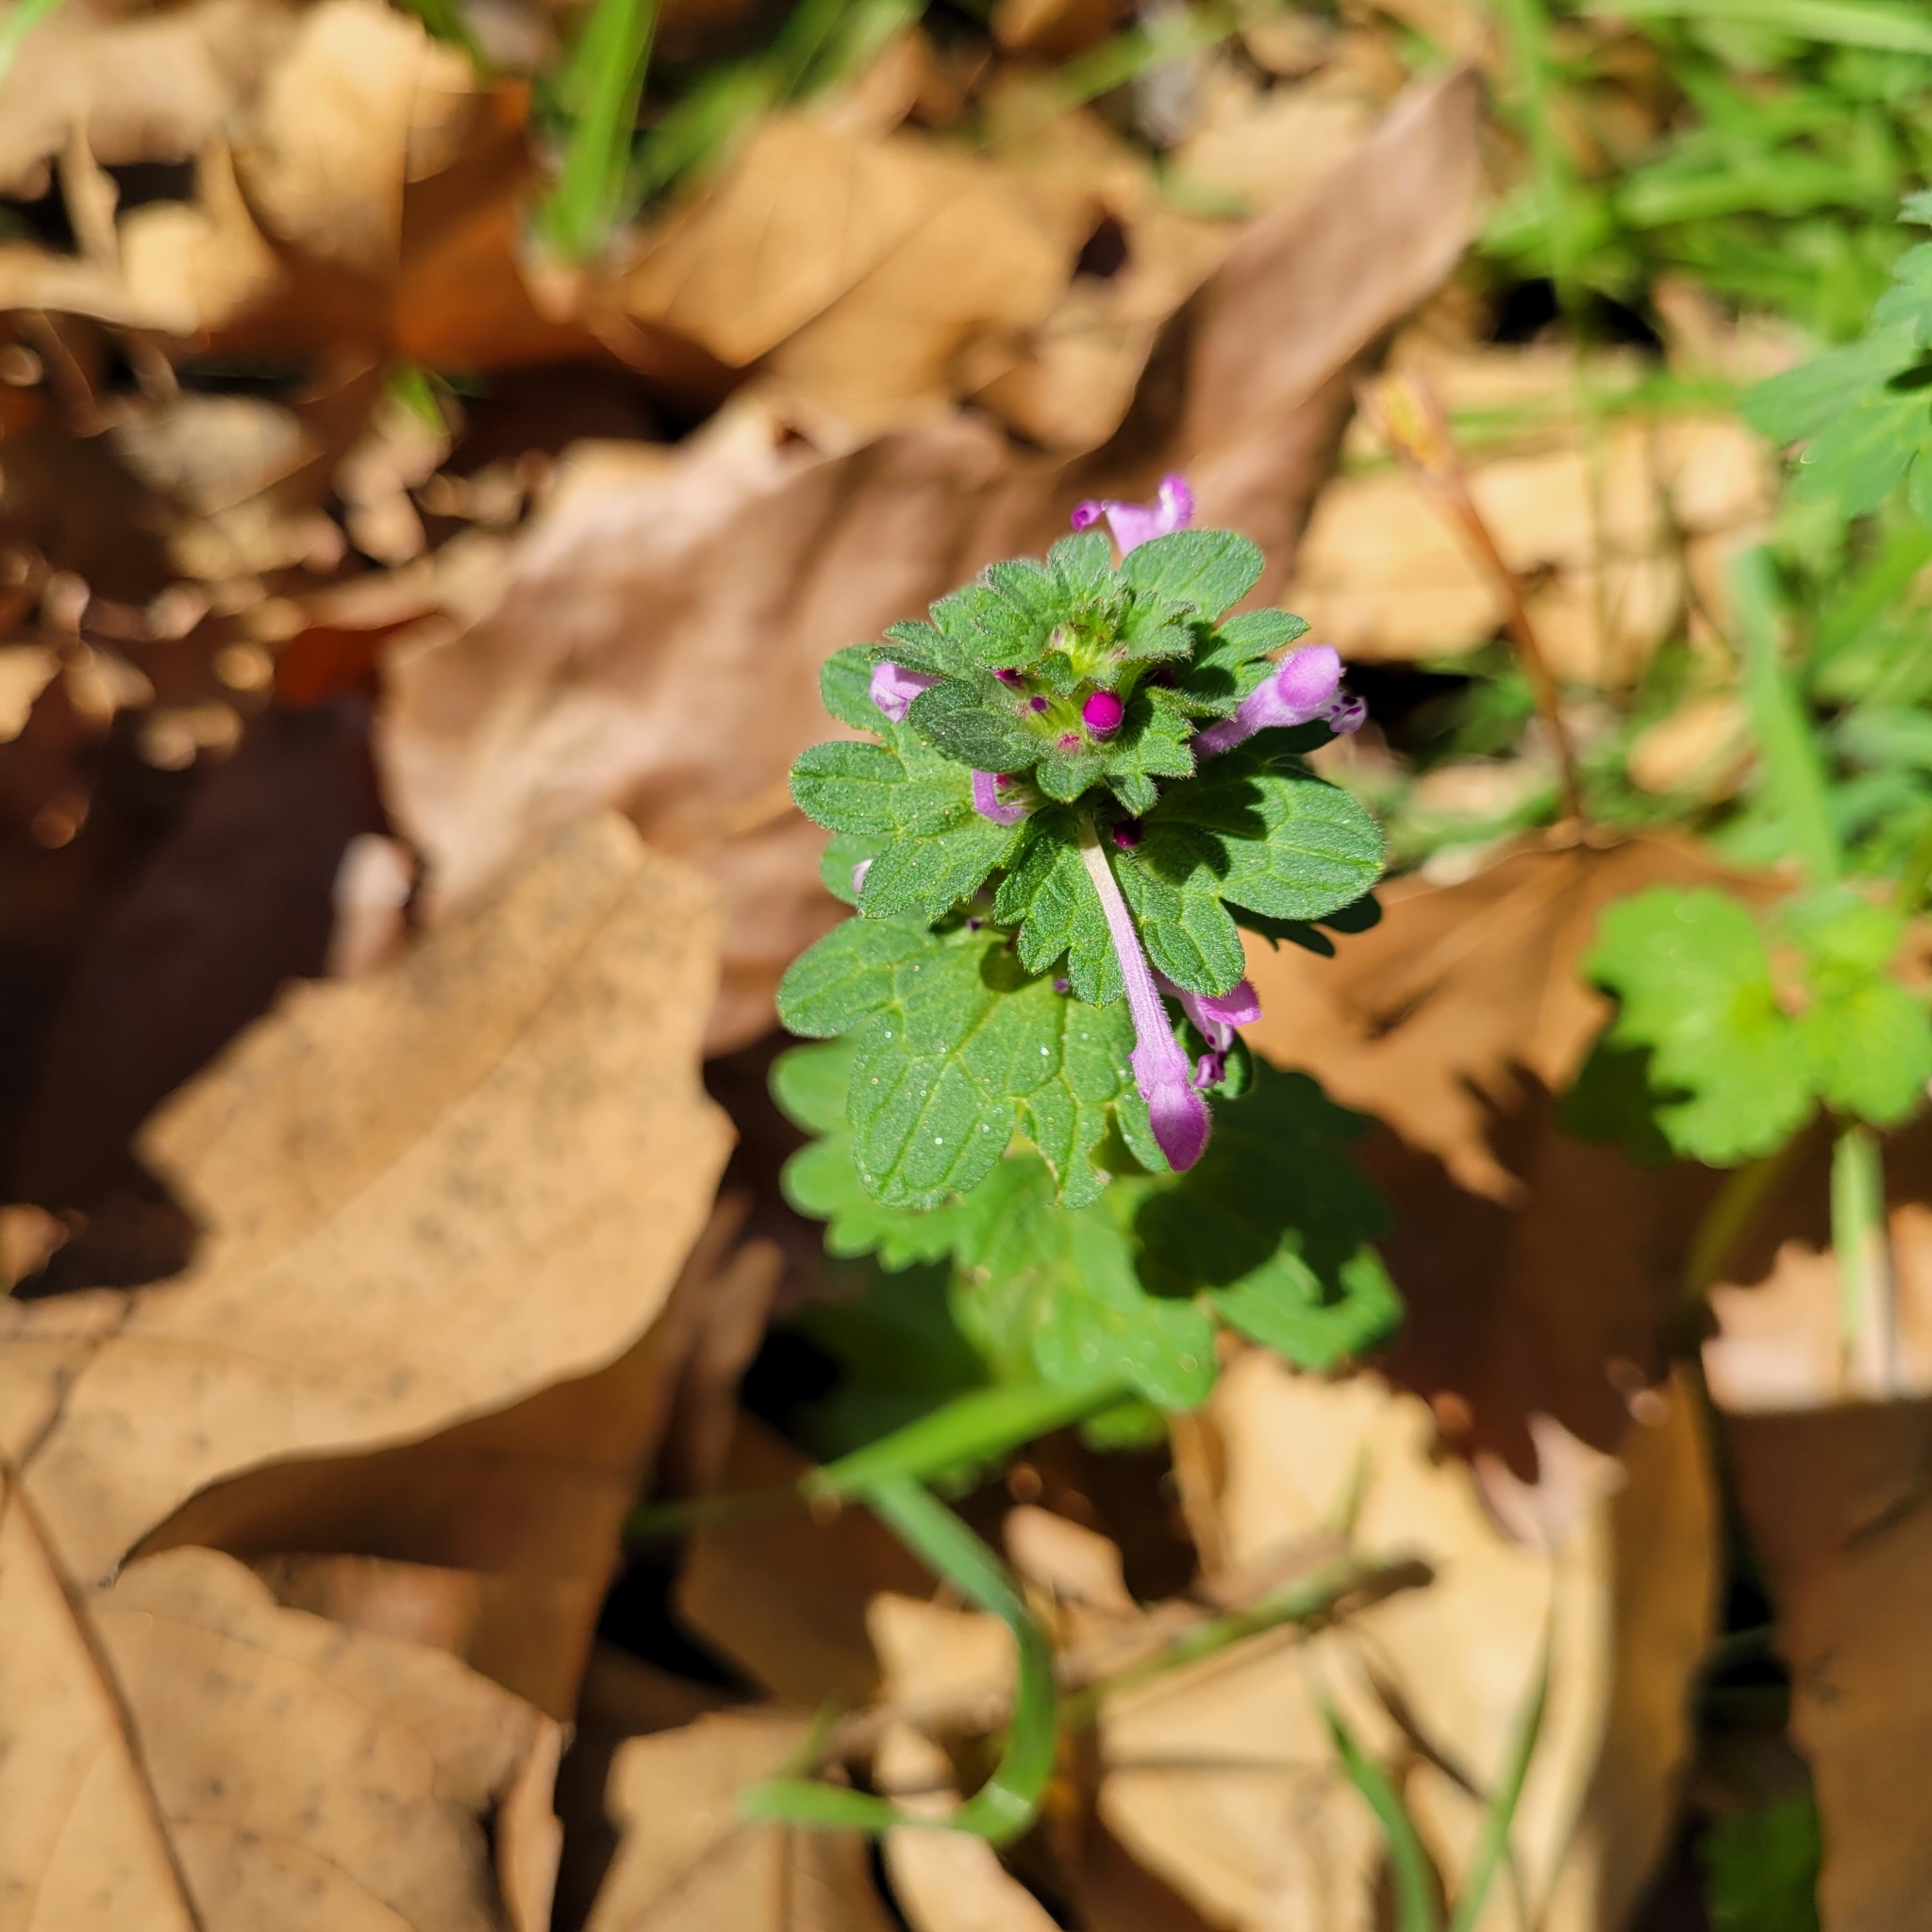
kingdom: Plantae
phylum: Tracheophyta
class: Magnoliopsida
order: Lamiales
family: Lamiaceae
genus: Lamium
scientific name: Lamium amplexicaule
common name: Henbit dead-nettle
